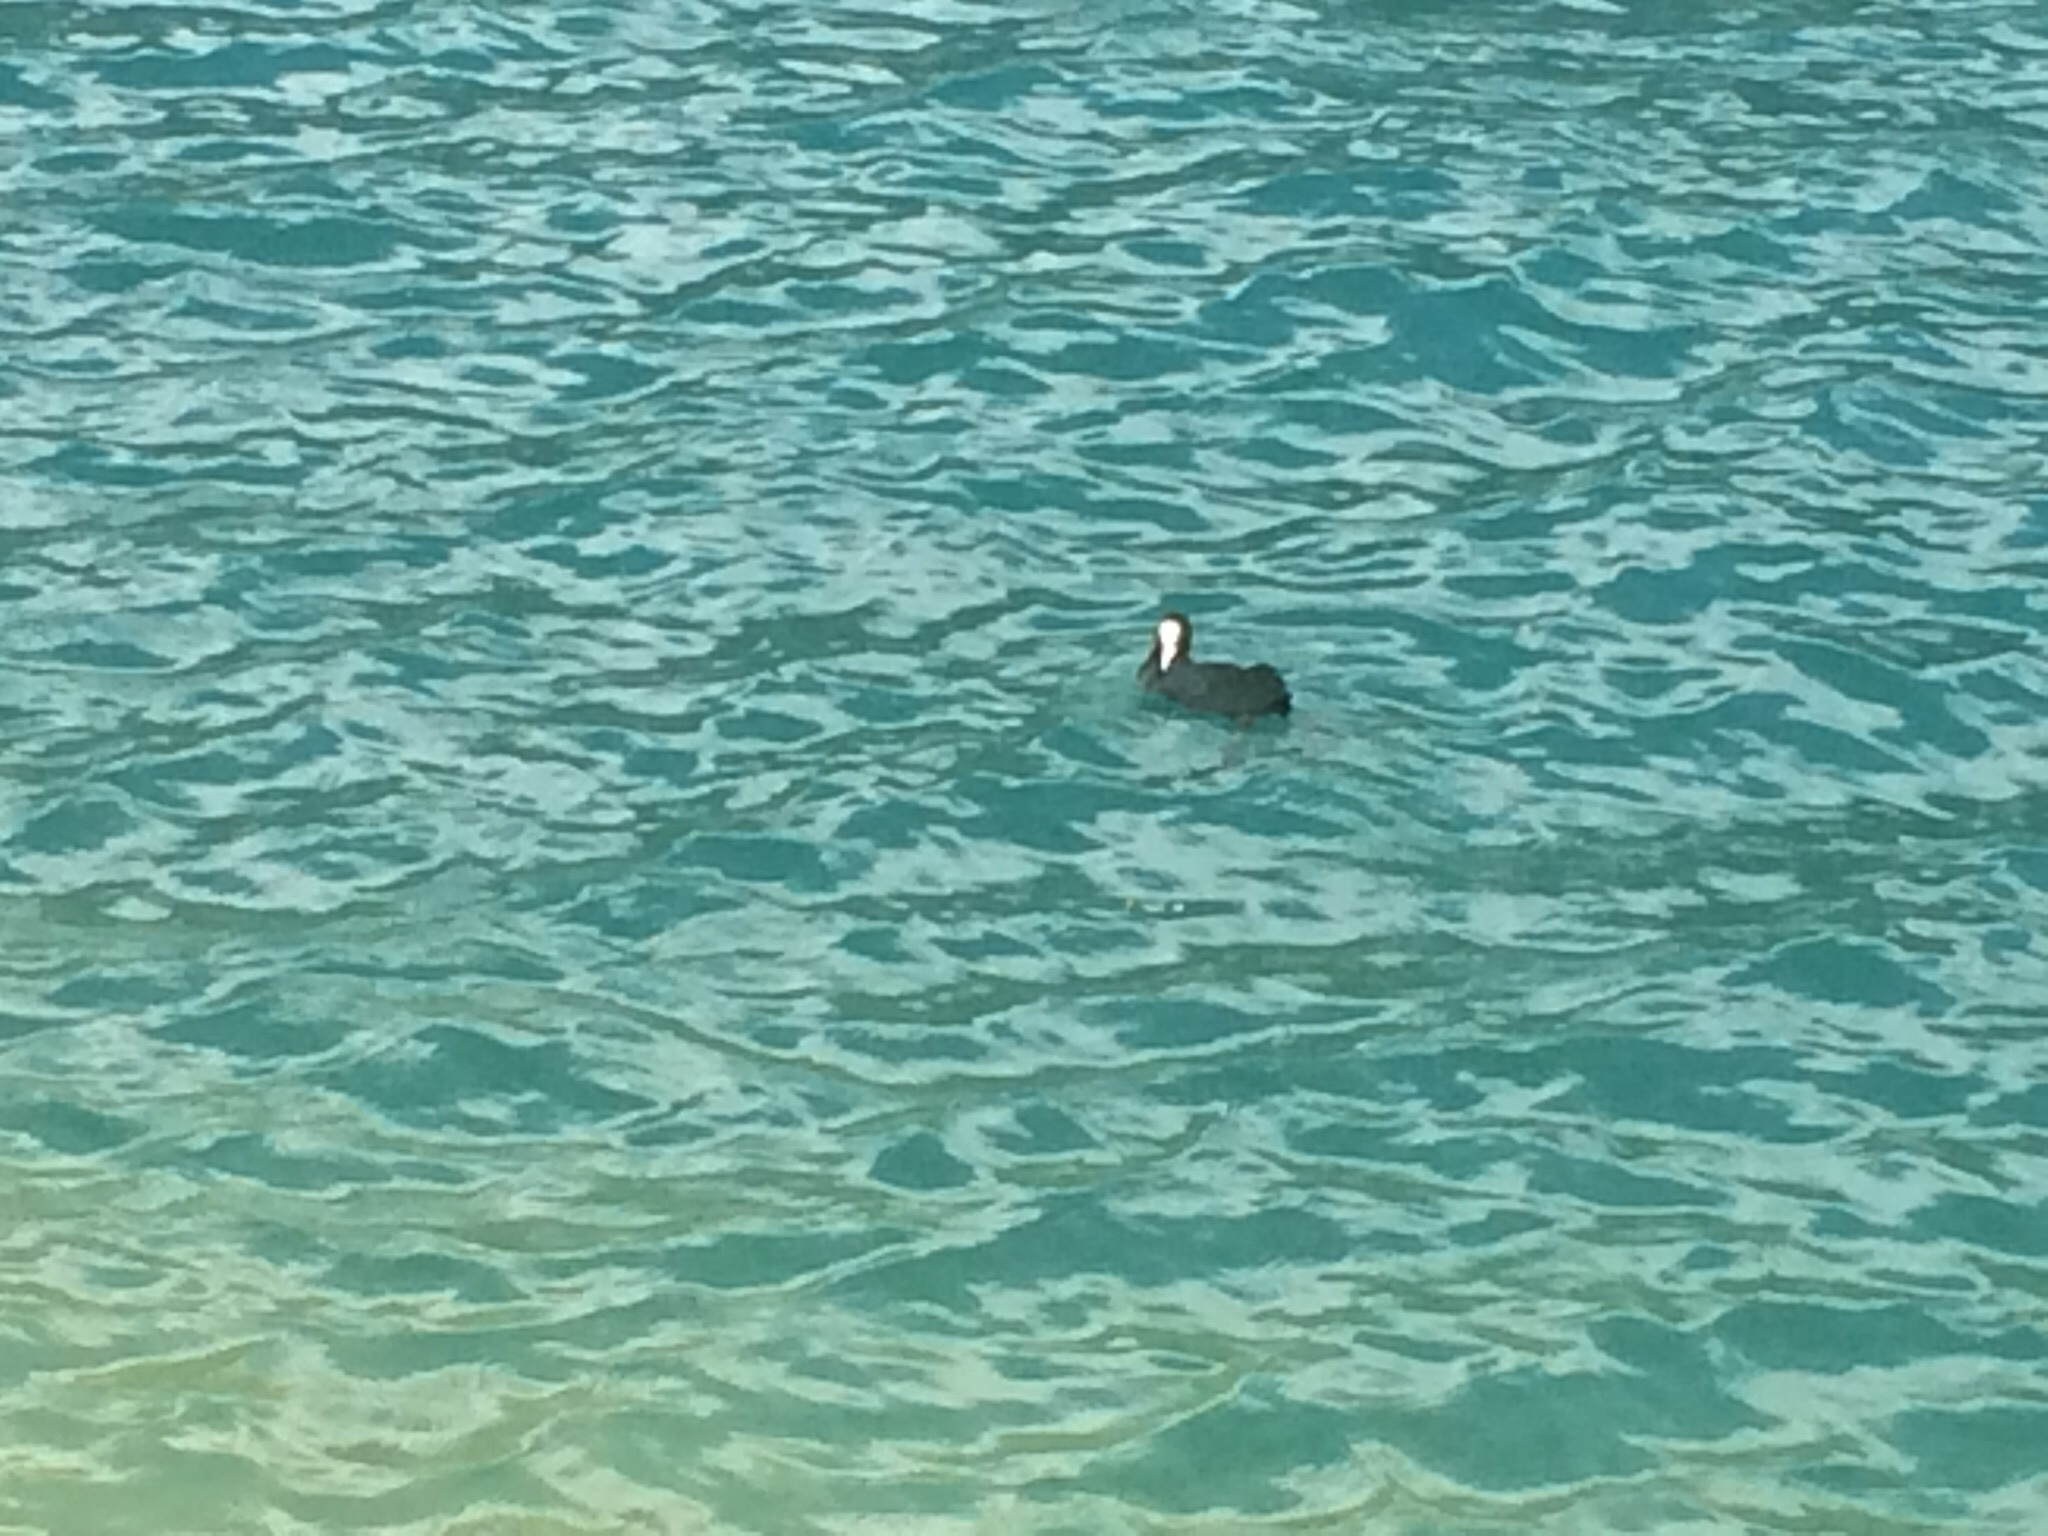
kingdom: Animalia
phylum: Chordata
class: Aves
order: Gruiformes
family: Rallidae
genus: Fulica
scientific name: Fulica atra
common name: Eurasian coot
